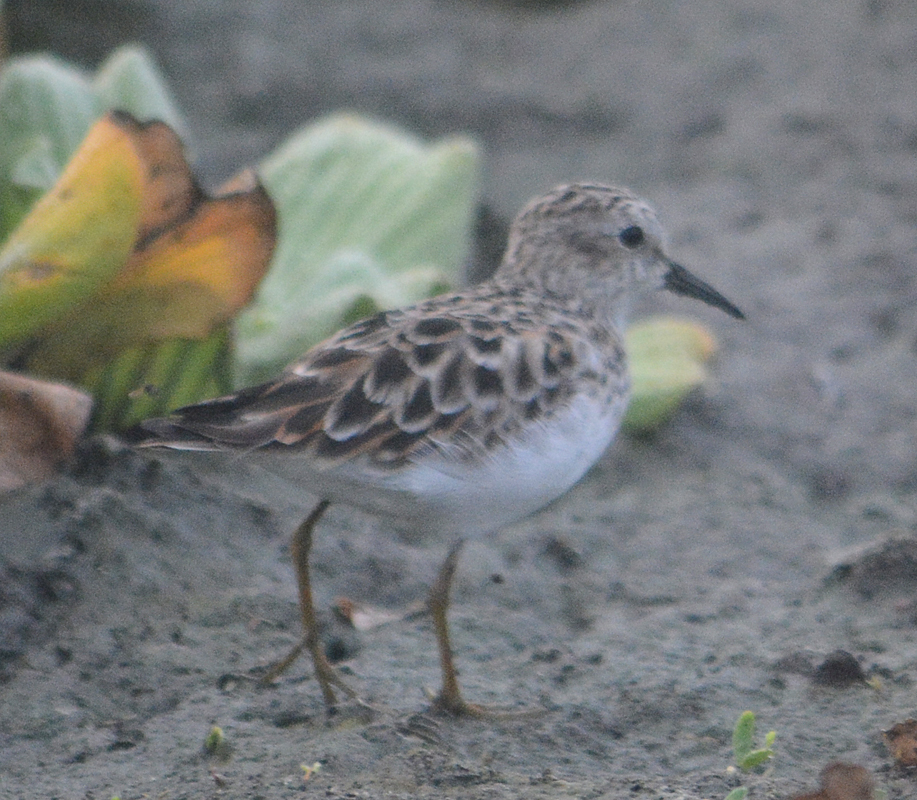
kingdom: Animalia
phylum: Chordata
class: Aves
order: Charadriiformes
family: Scolopacidae
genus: Calidris
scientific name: Calidris minutilla
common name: Least sandpiper
